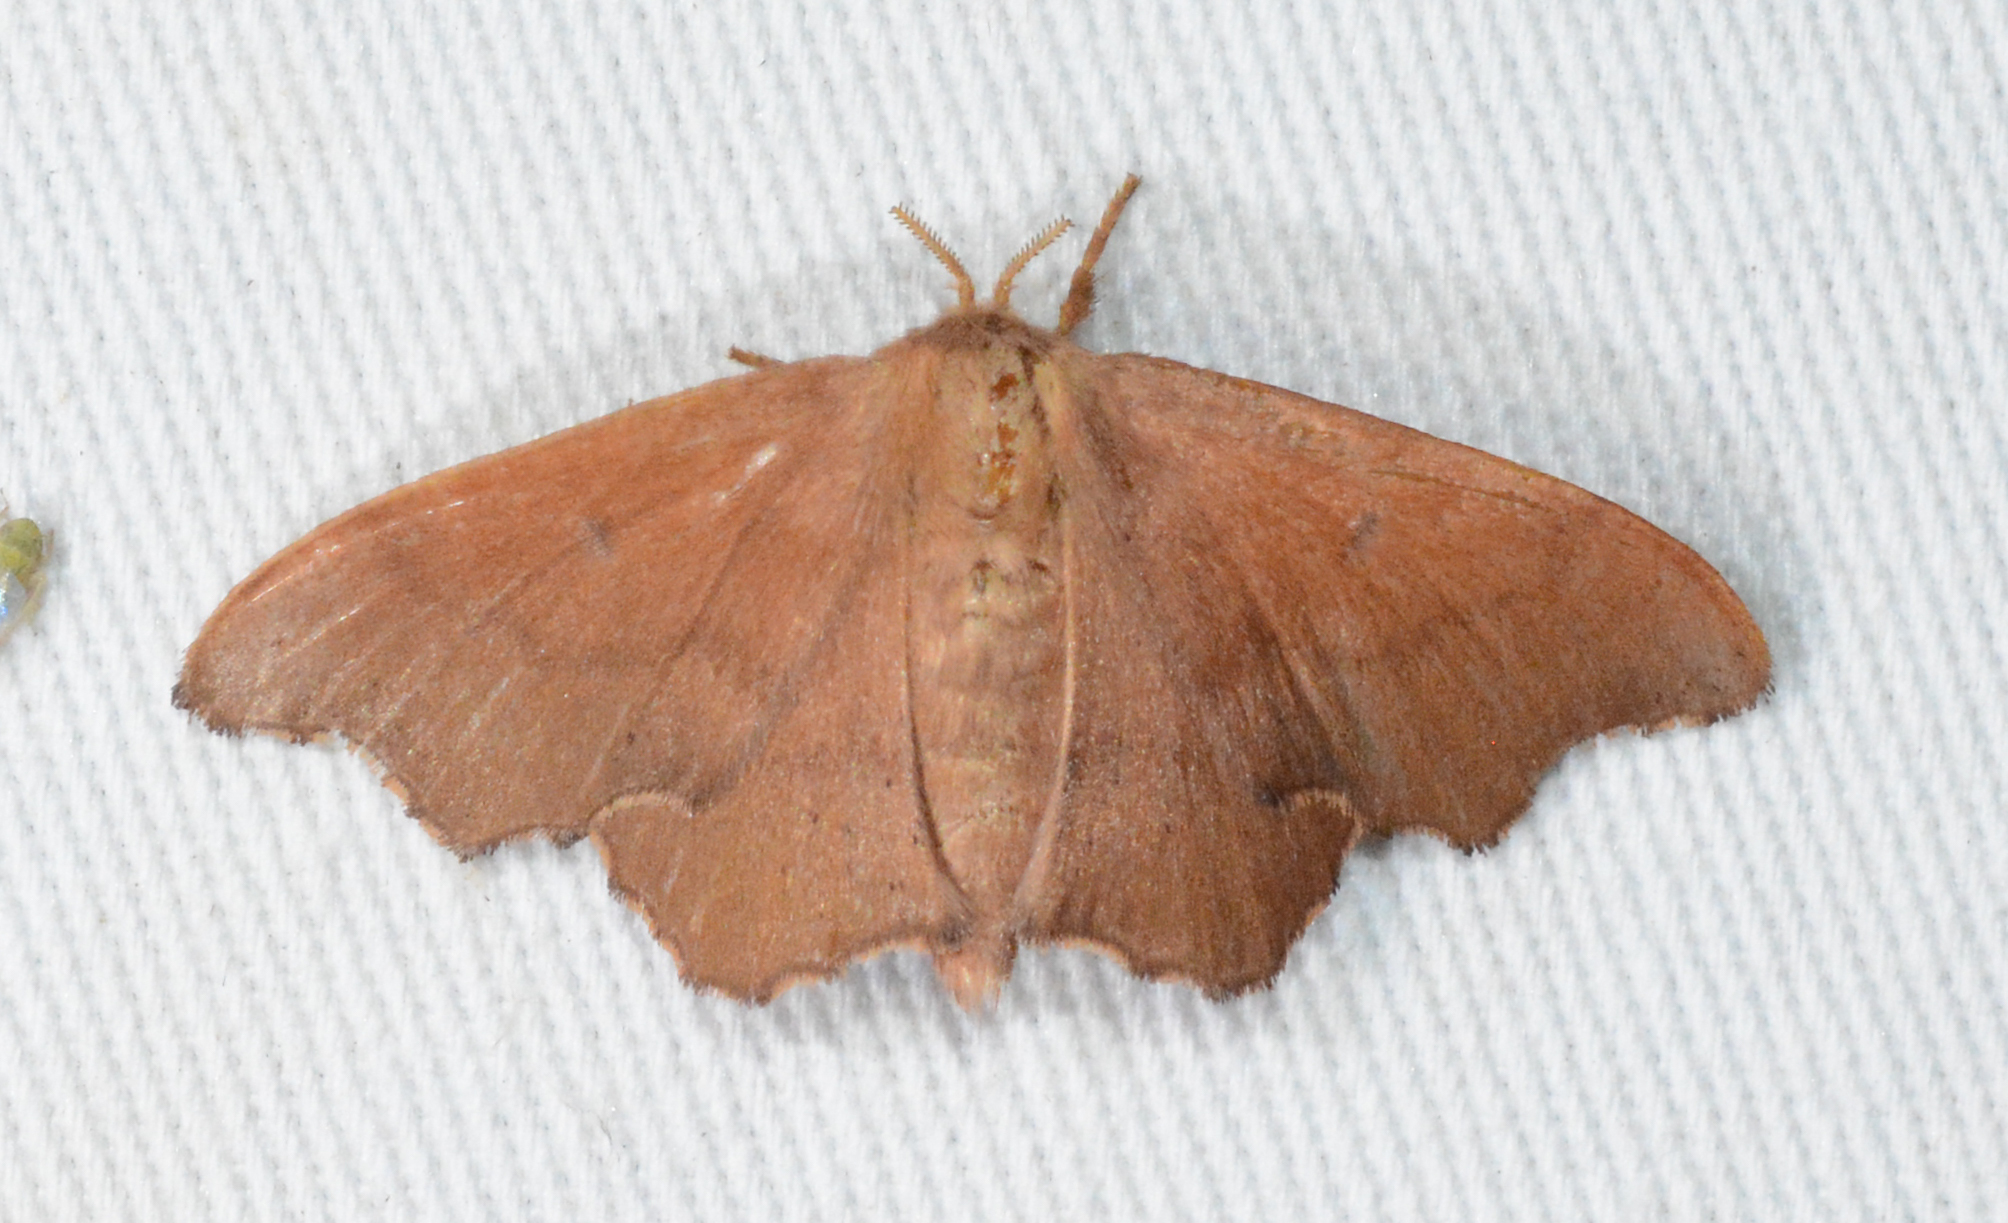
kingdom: Animalia
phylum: Arthropoda
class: Insecta
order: Lepidoptera
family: Mimallonidae
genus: Lacosoma
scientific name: Lacosoma chiridota
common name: Scalloped sack-bearer moth
